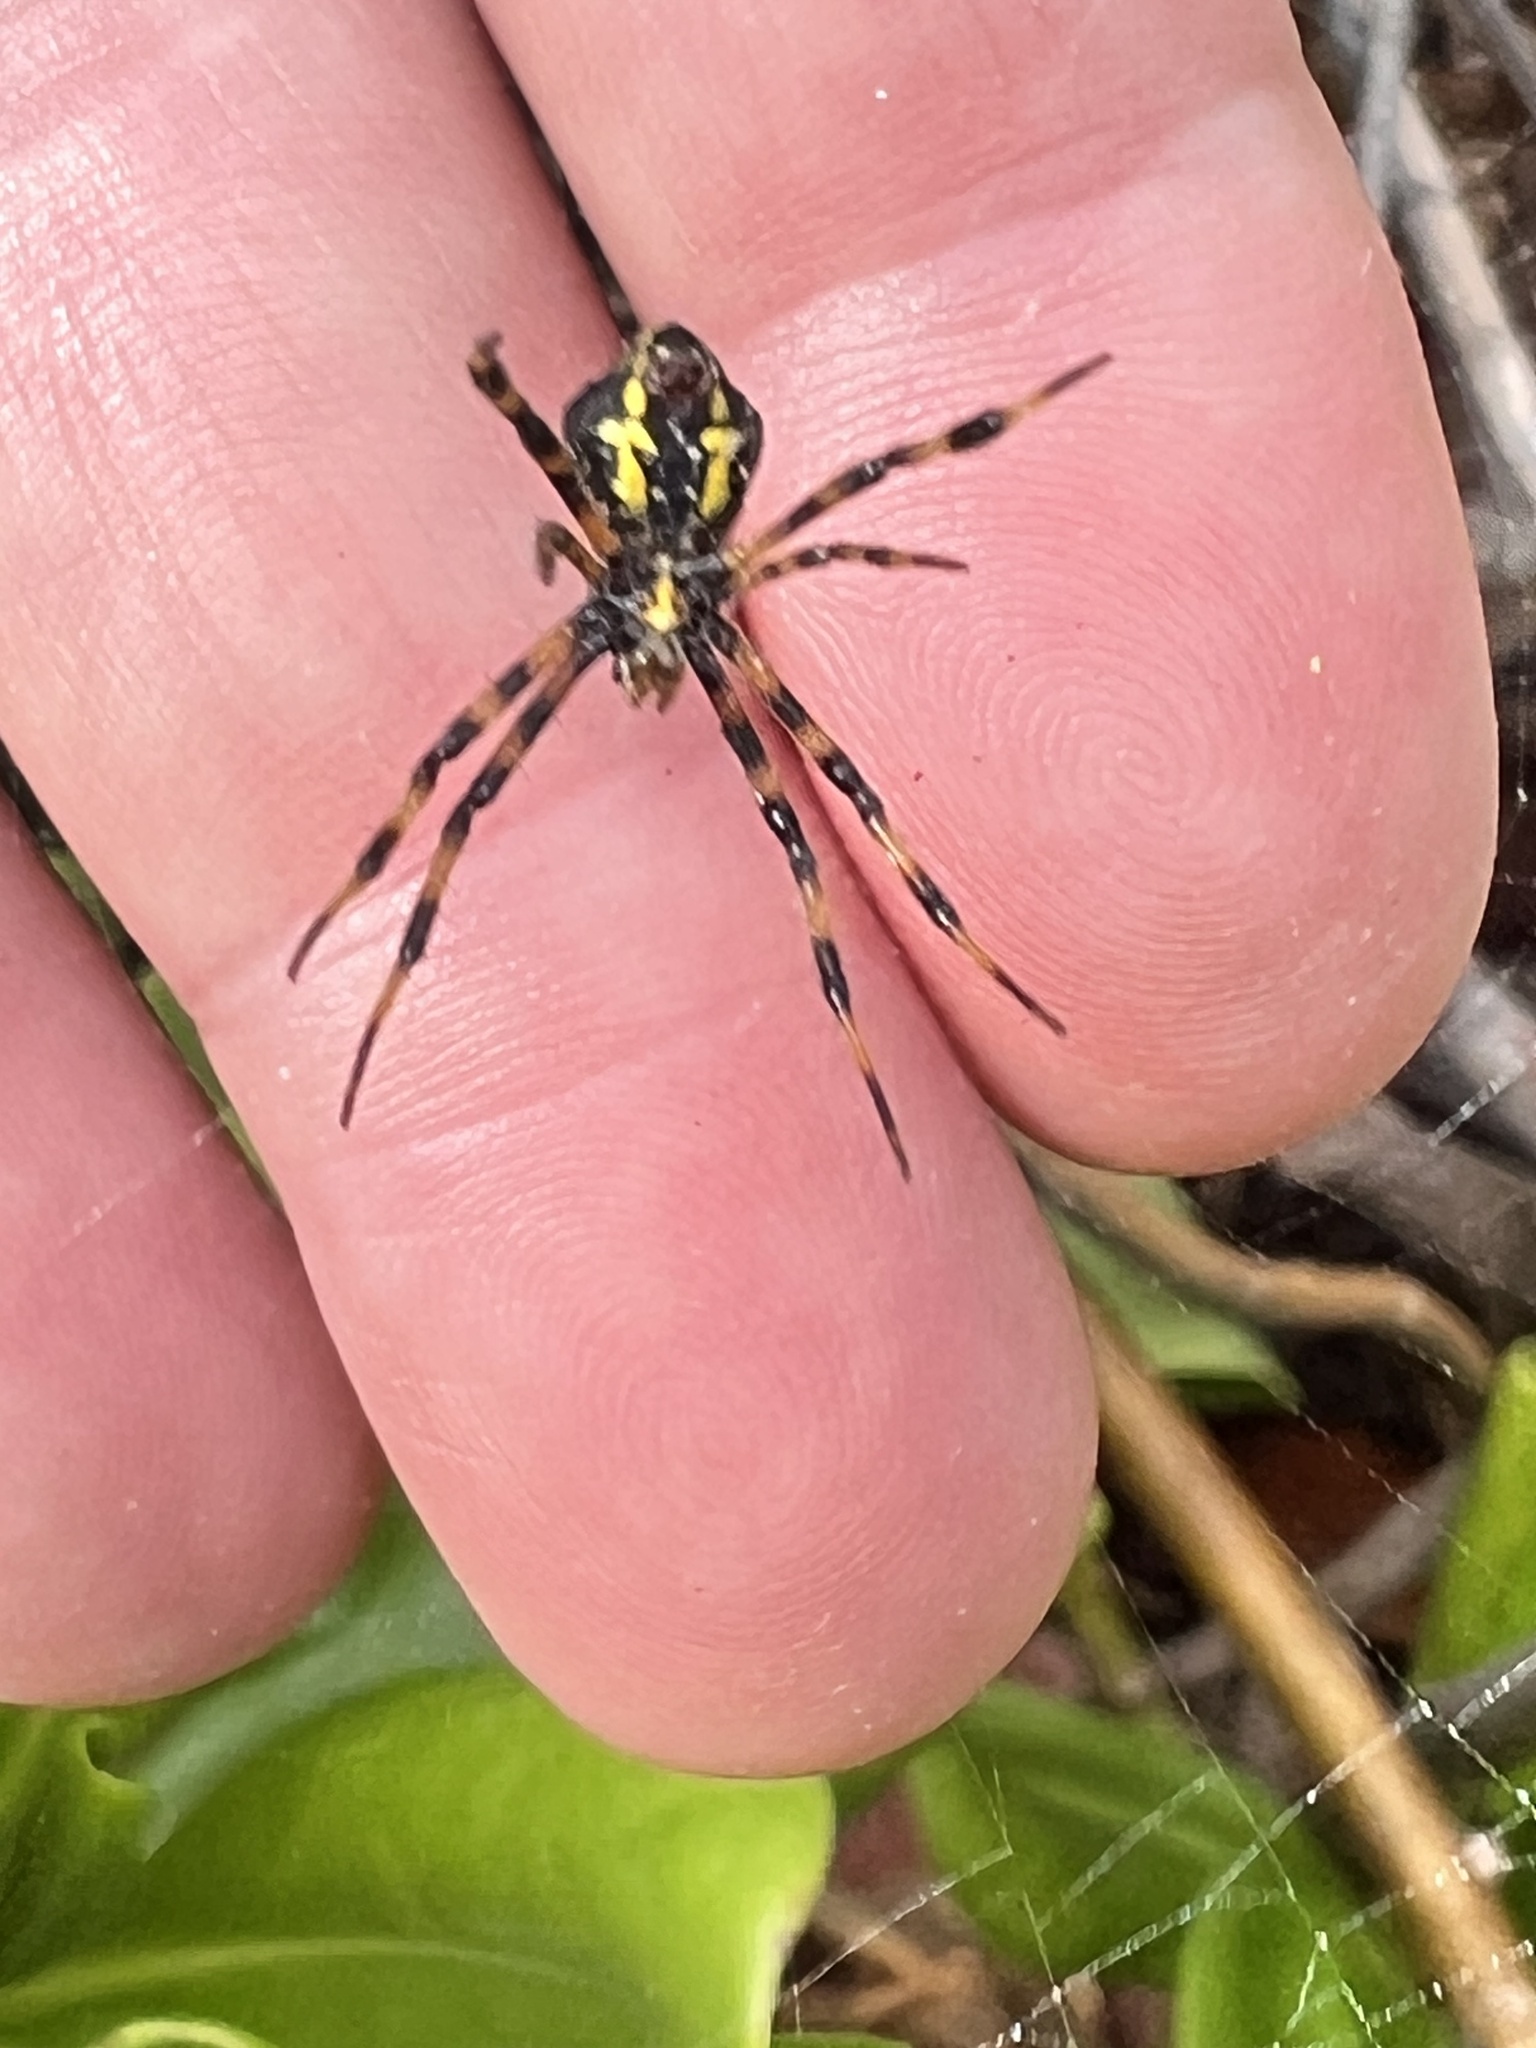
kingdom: Animalia
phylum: Arthropoda
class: Arachnida
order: Araneae
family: Araneidae
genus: Argiope
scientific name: Argiope appensa
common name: Garden spider
